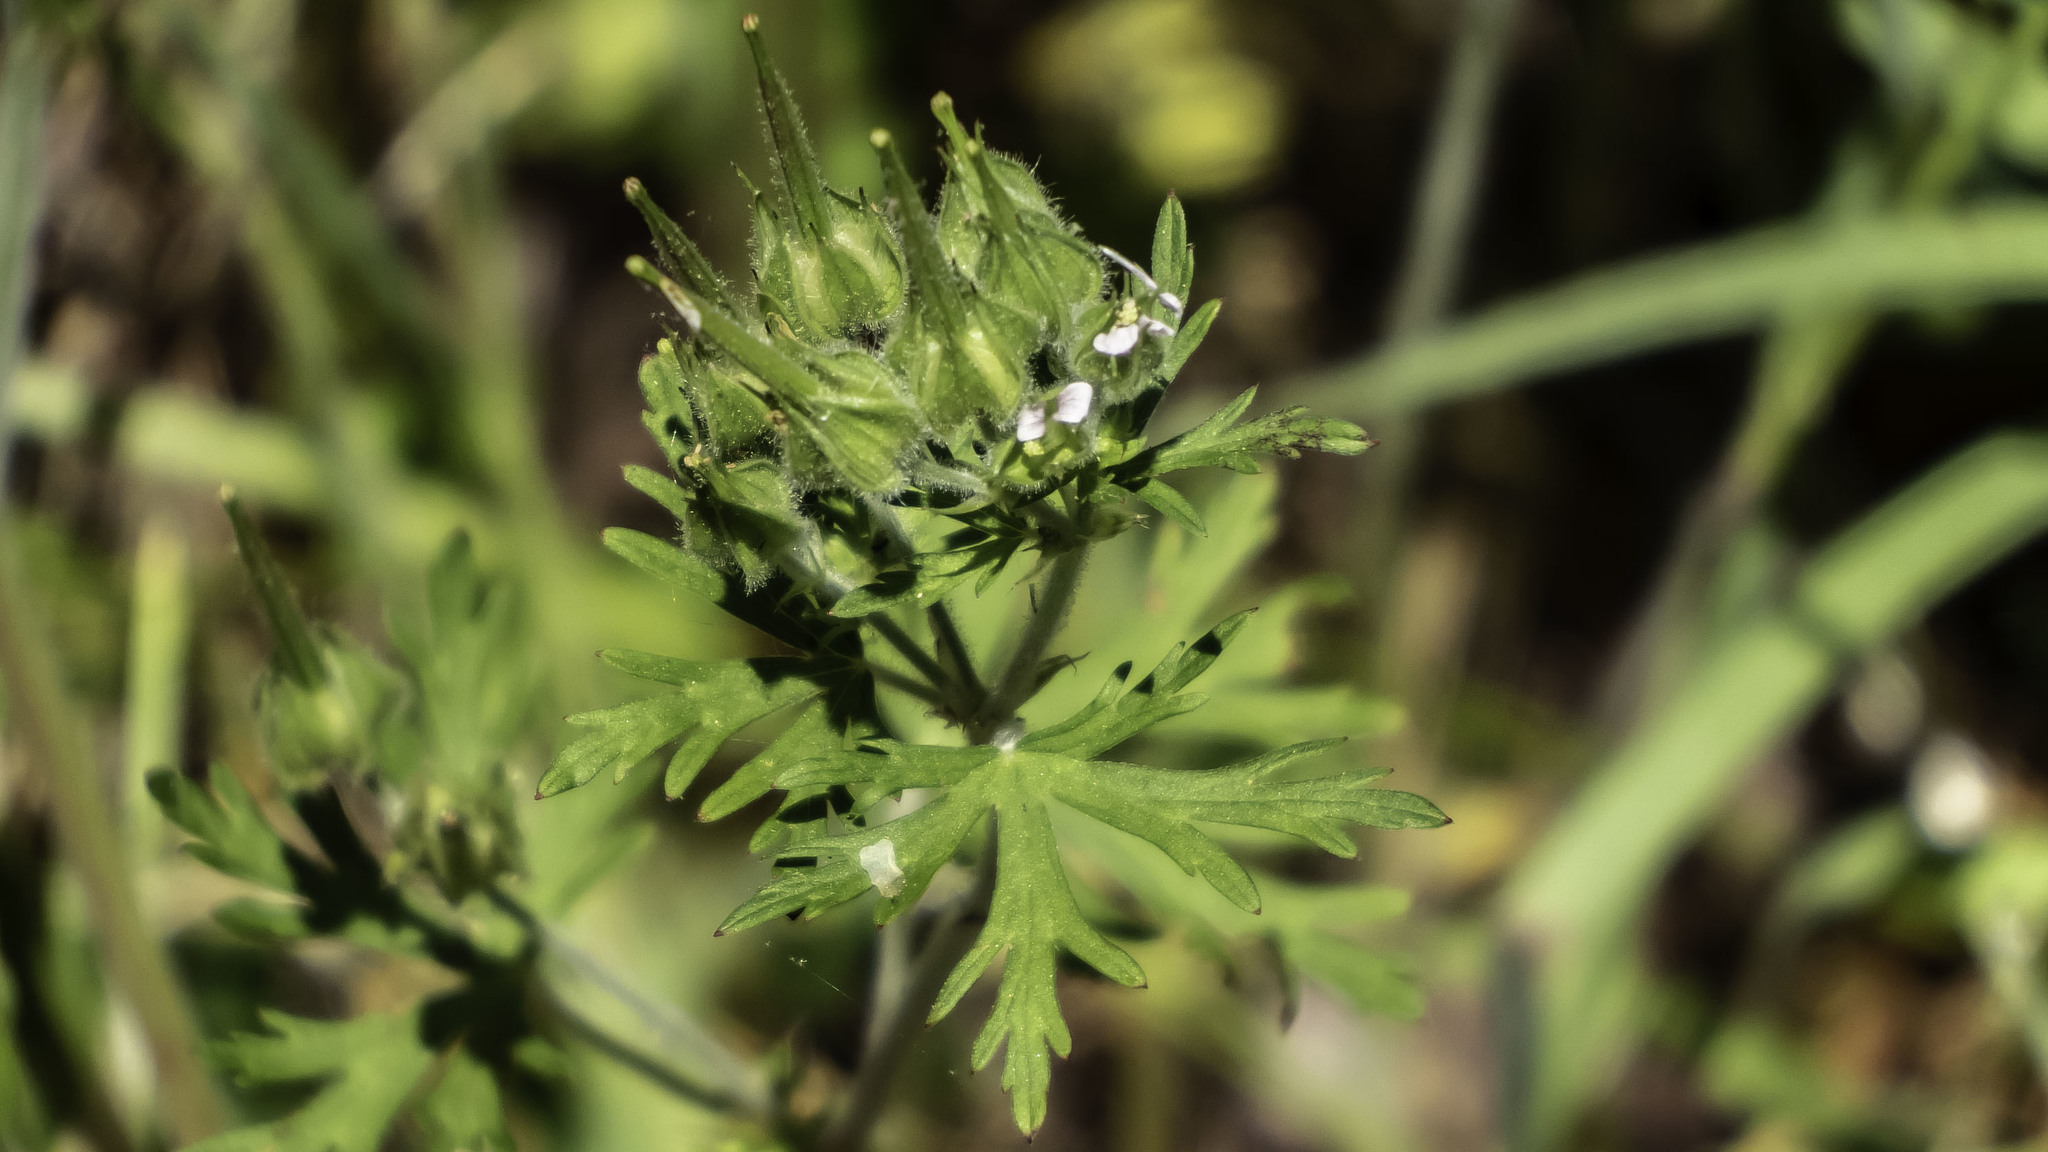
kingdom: Plantae
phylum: Tracheophyta
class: Magnoliopsida
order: Geraniales
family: Geraniaceae
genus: Geranium
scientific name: Geranium carolinianum
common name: Carolina crane's-bill
